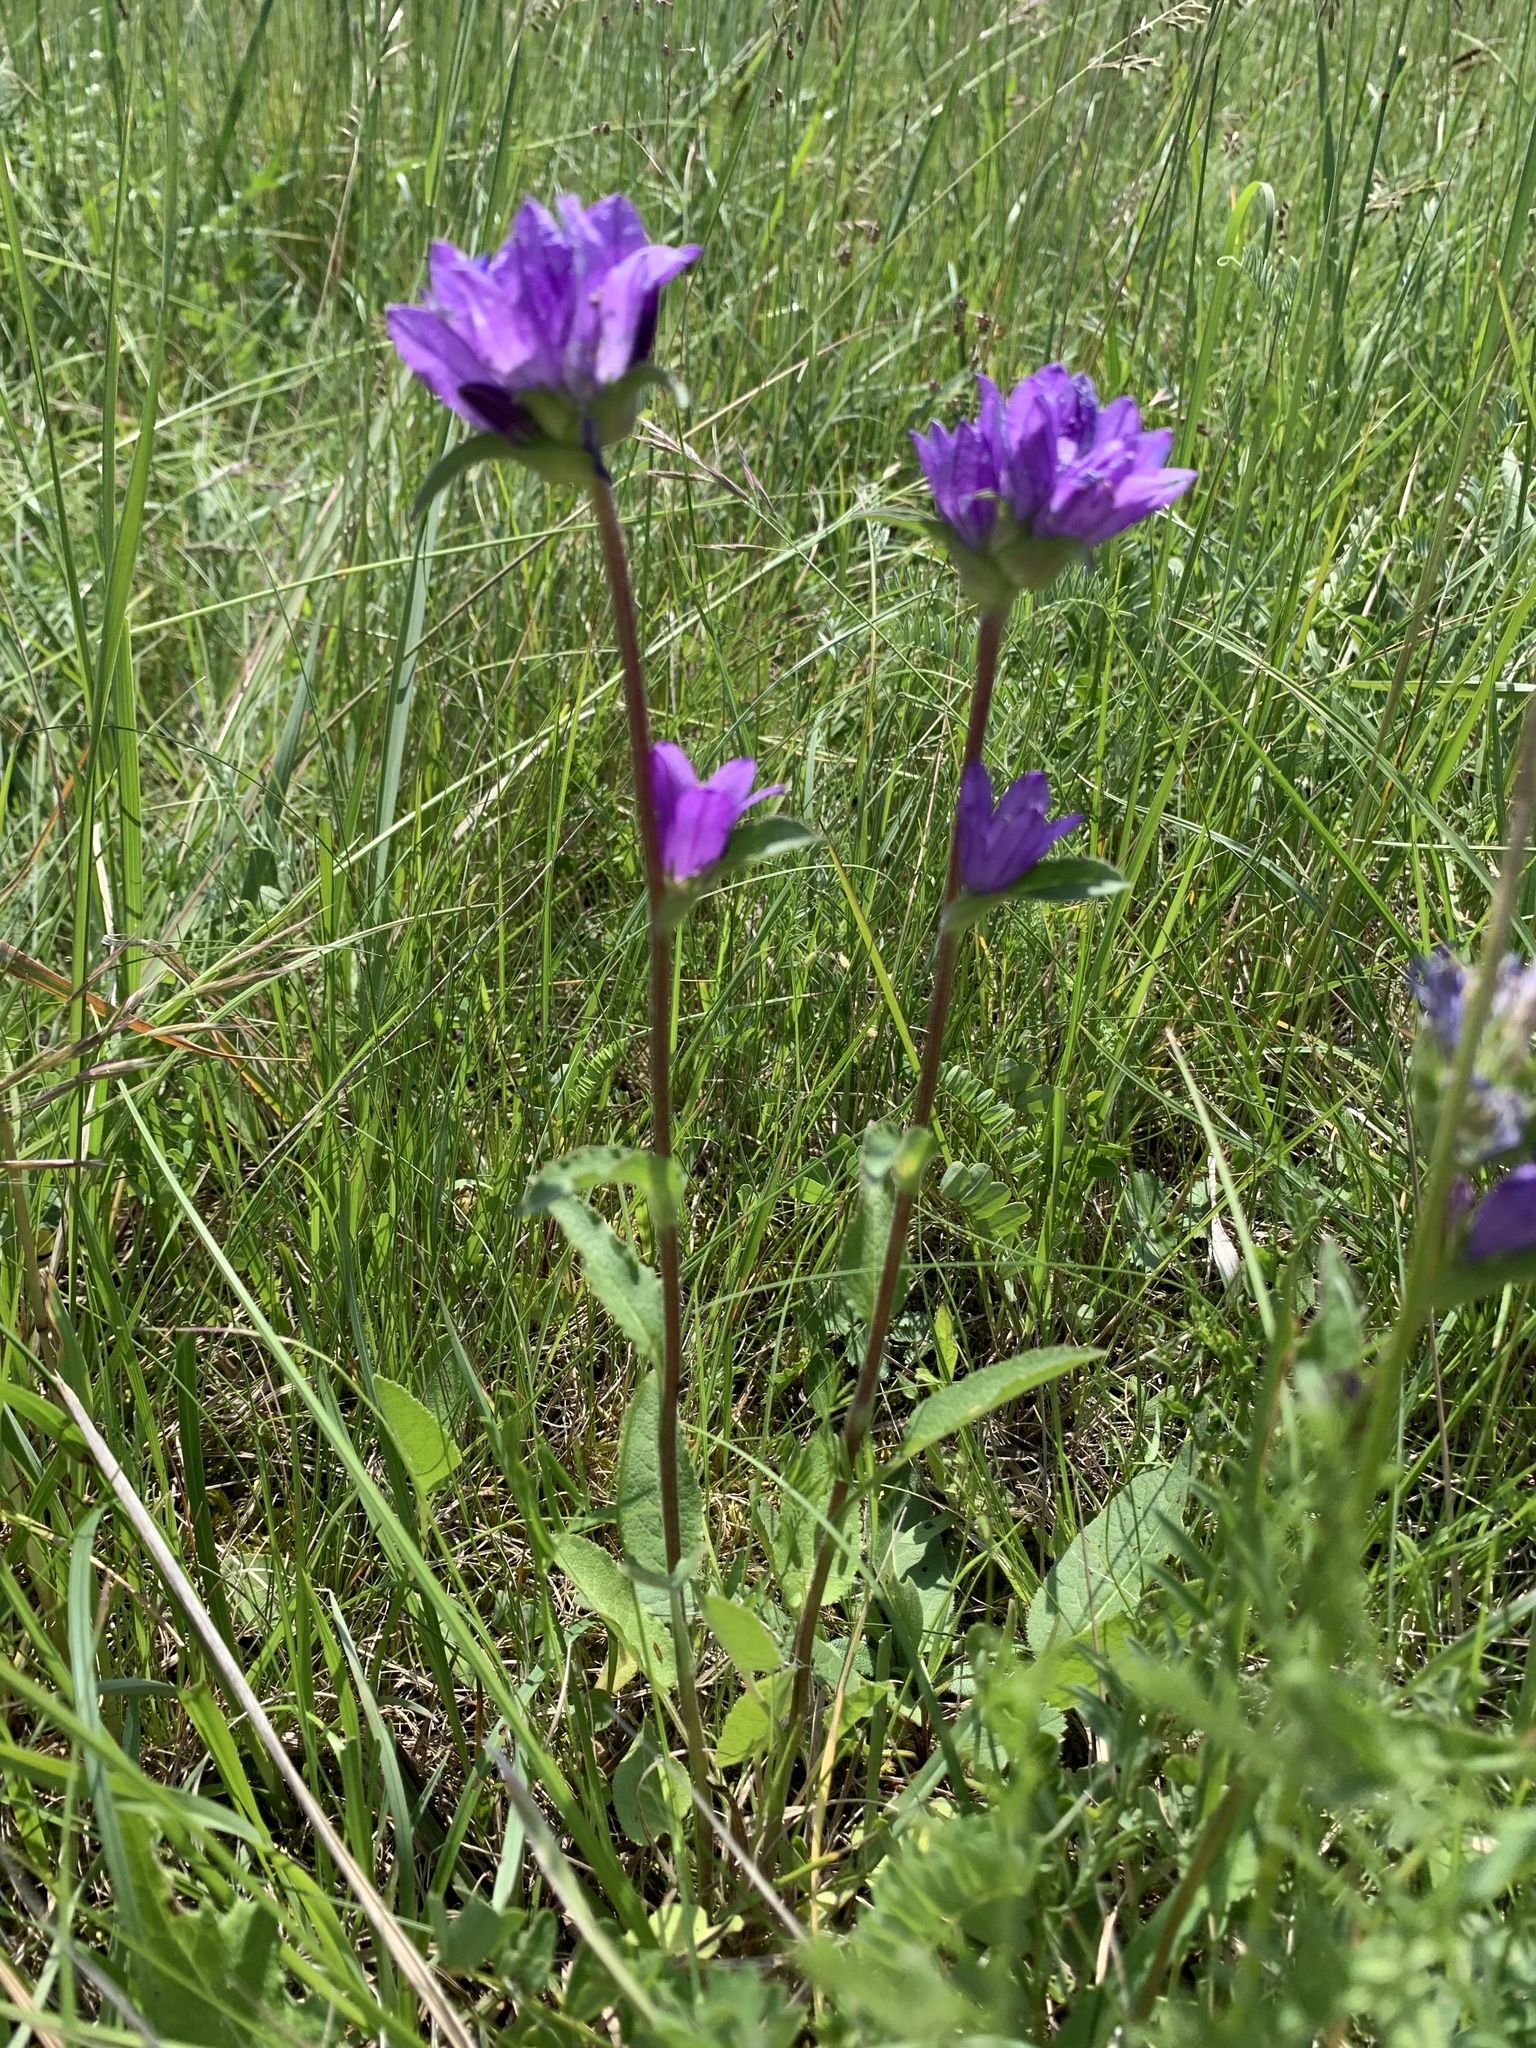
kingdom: Plantae
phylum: Tracheophyta
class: Magnoliopsida
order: Asterales
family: Campanulaceae
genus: Campanula
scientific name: Campanula glomerata
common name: Clustered bellflower
